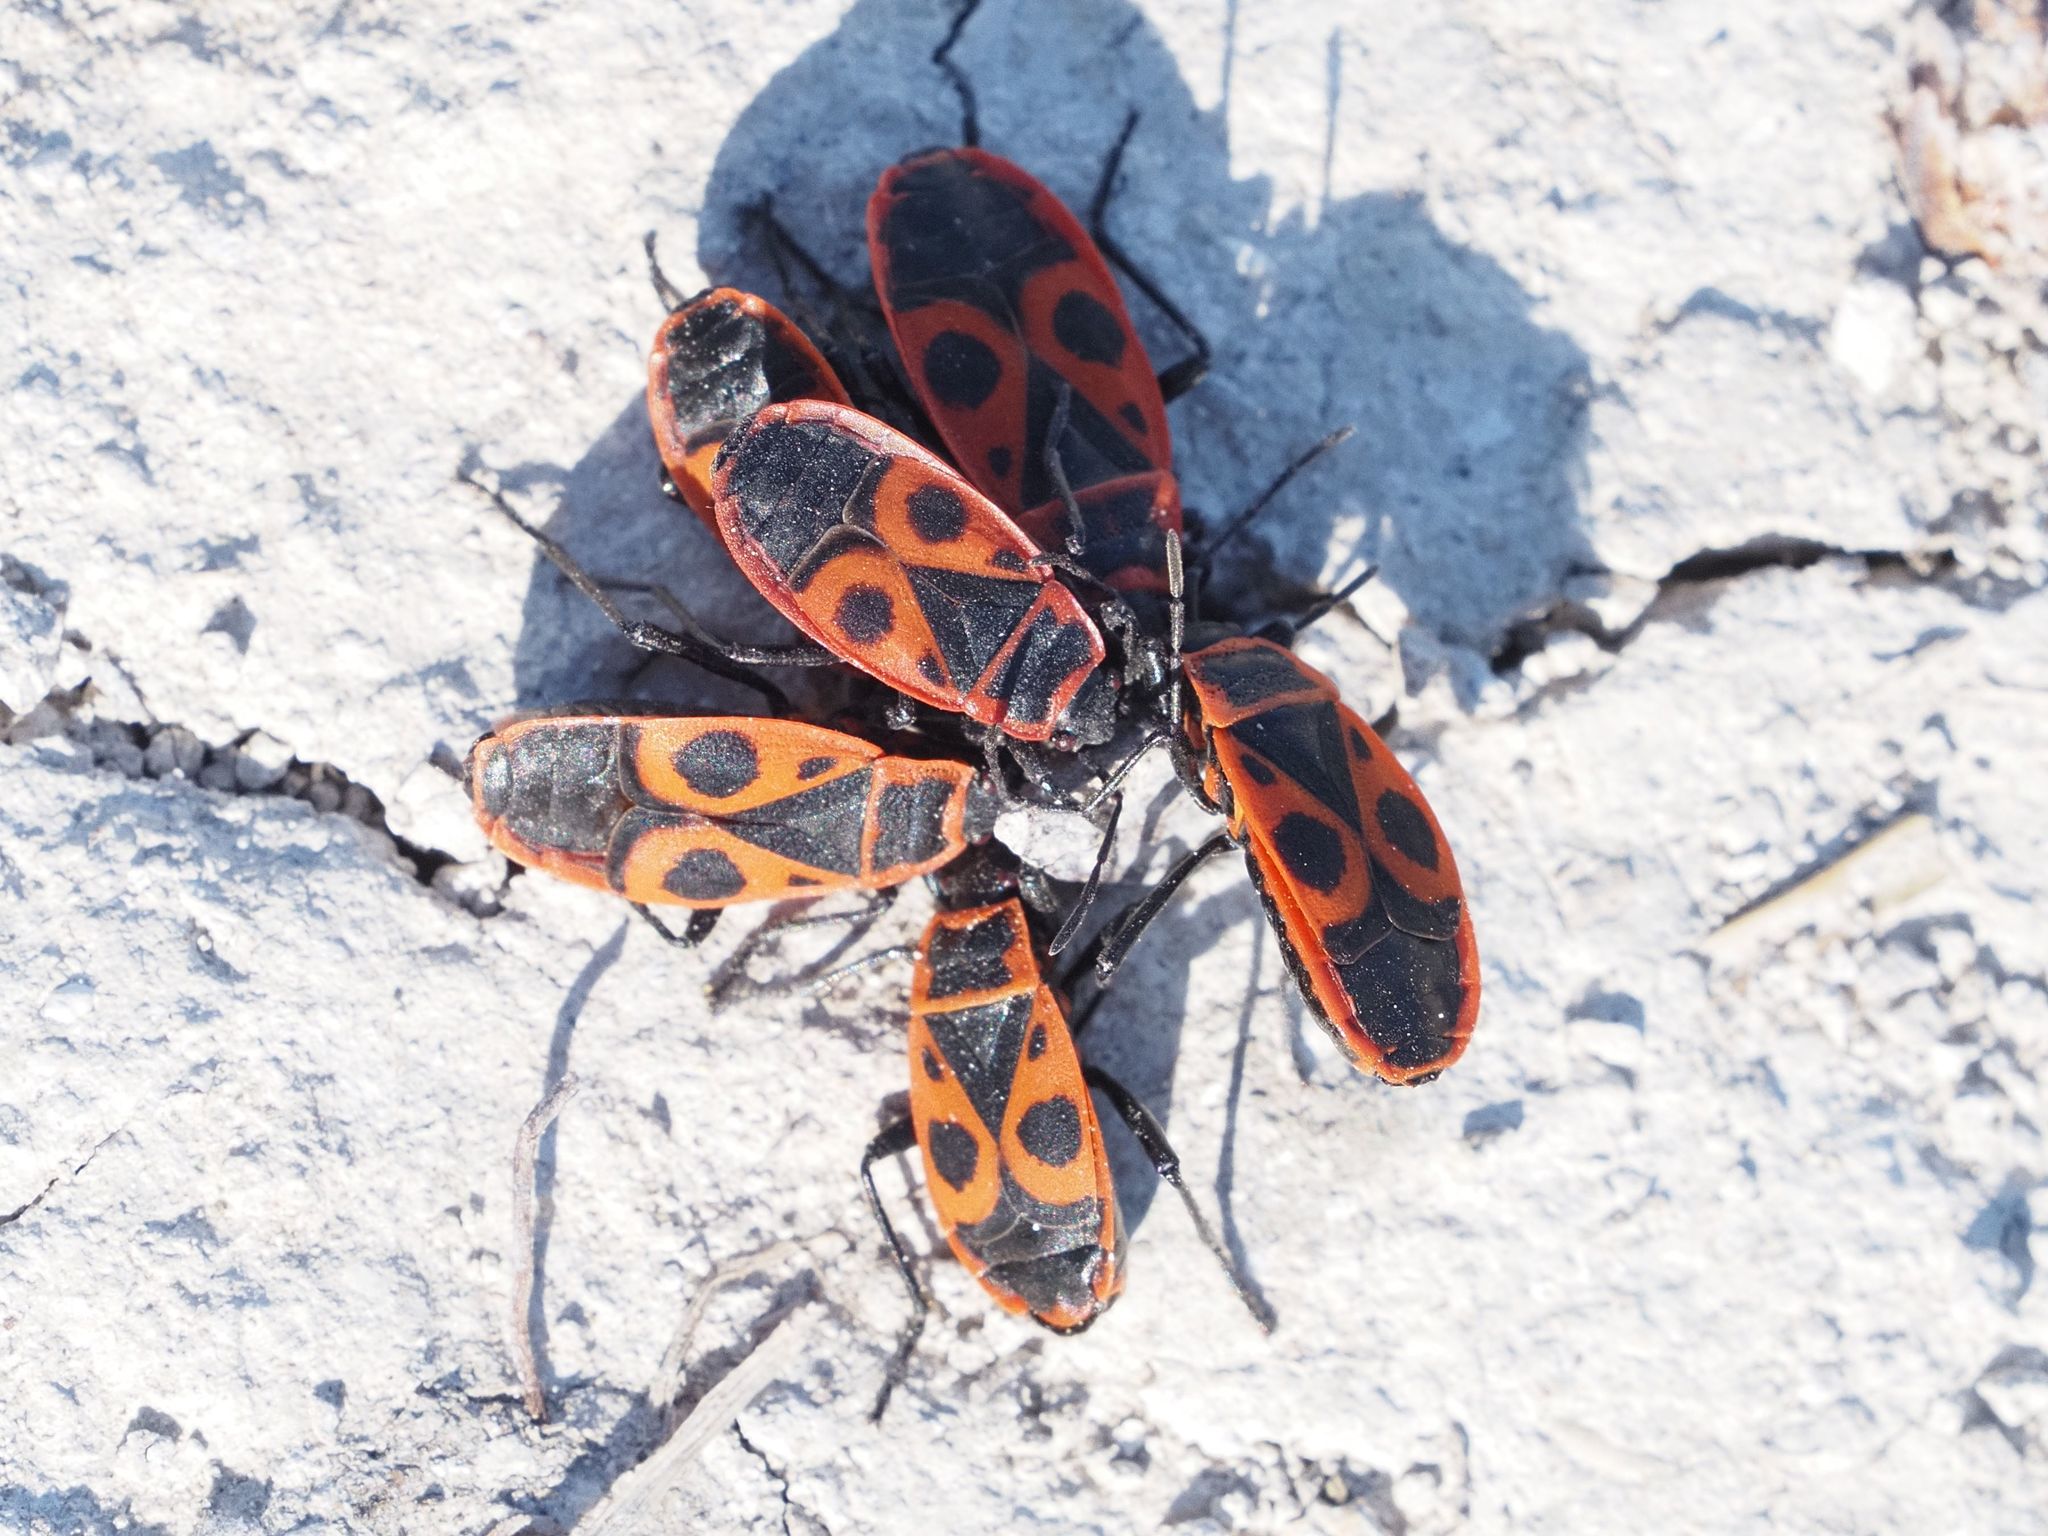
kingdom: Animalia
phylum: Arthropoda
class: Insecta
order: Hemiptera
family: Pyrrhocoridae
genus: Pyrrhocoris
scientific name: Pyrrhocoris apterus
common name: Firebug
